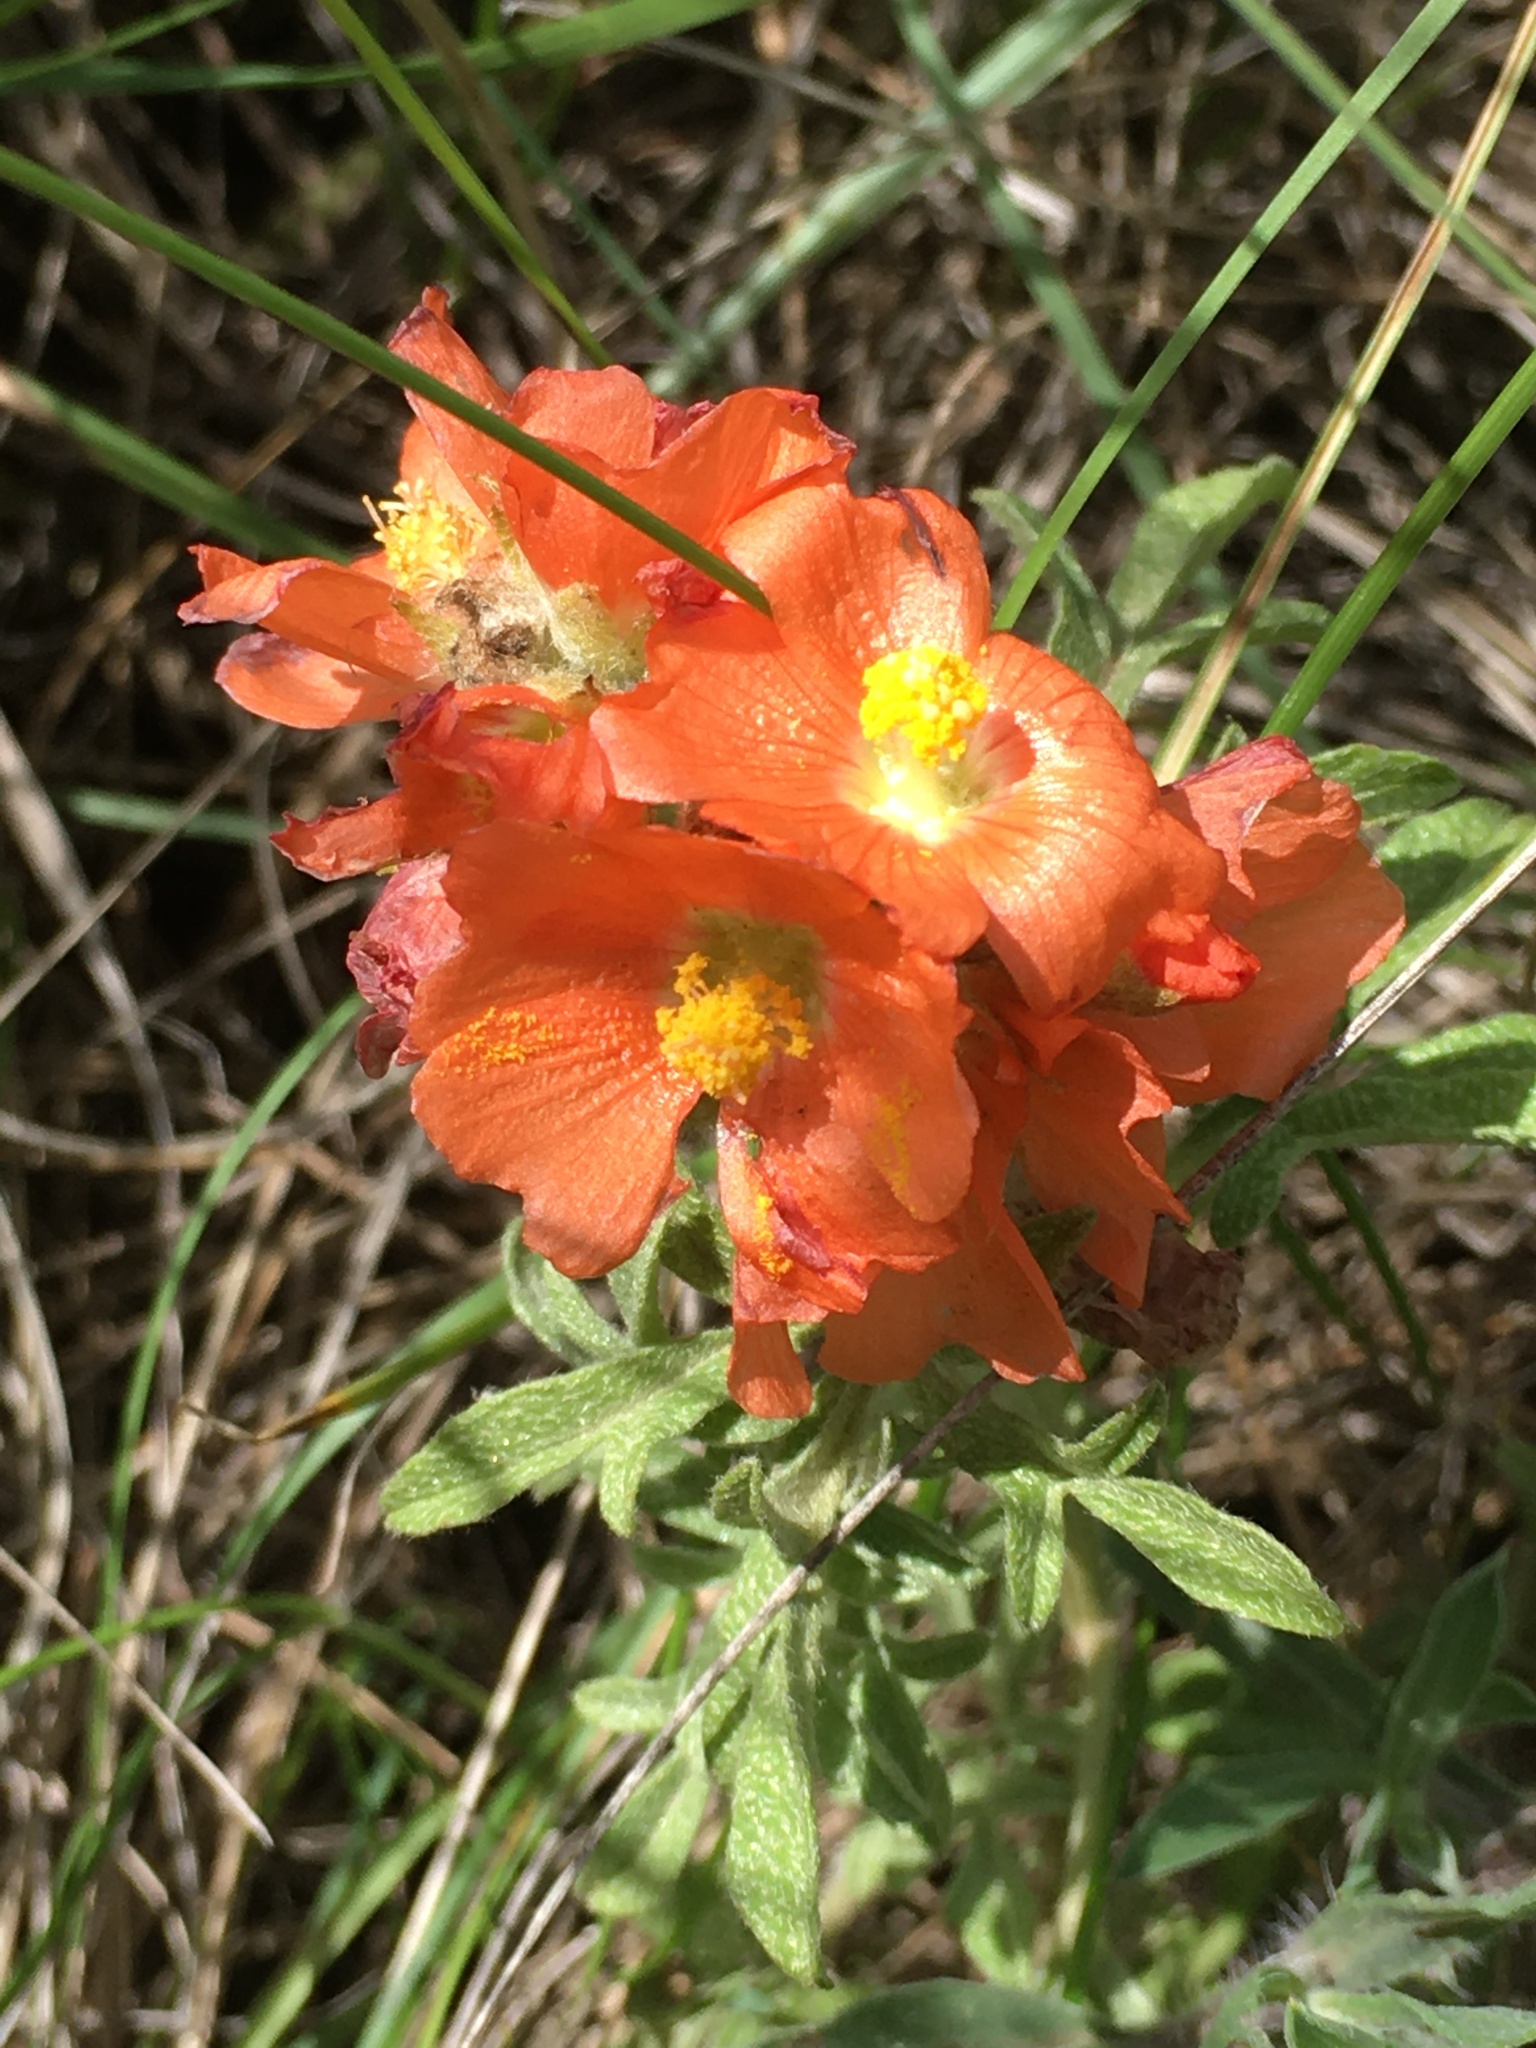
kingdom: Plantae
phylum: Tracheophyta
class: Magnoliopsida
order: Malvales
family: Malvaceae
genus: Sphaeralcea
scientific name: Sphaeralcea coccinea
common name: Moss-rose
